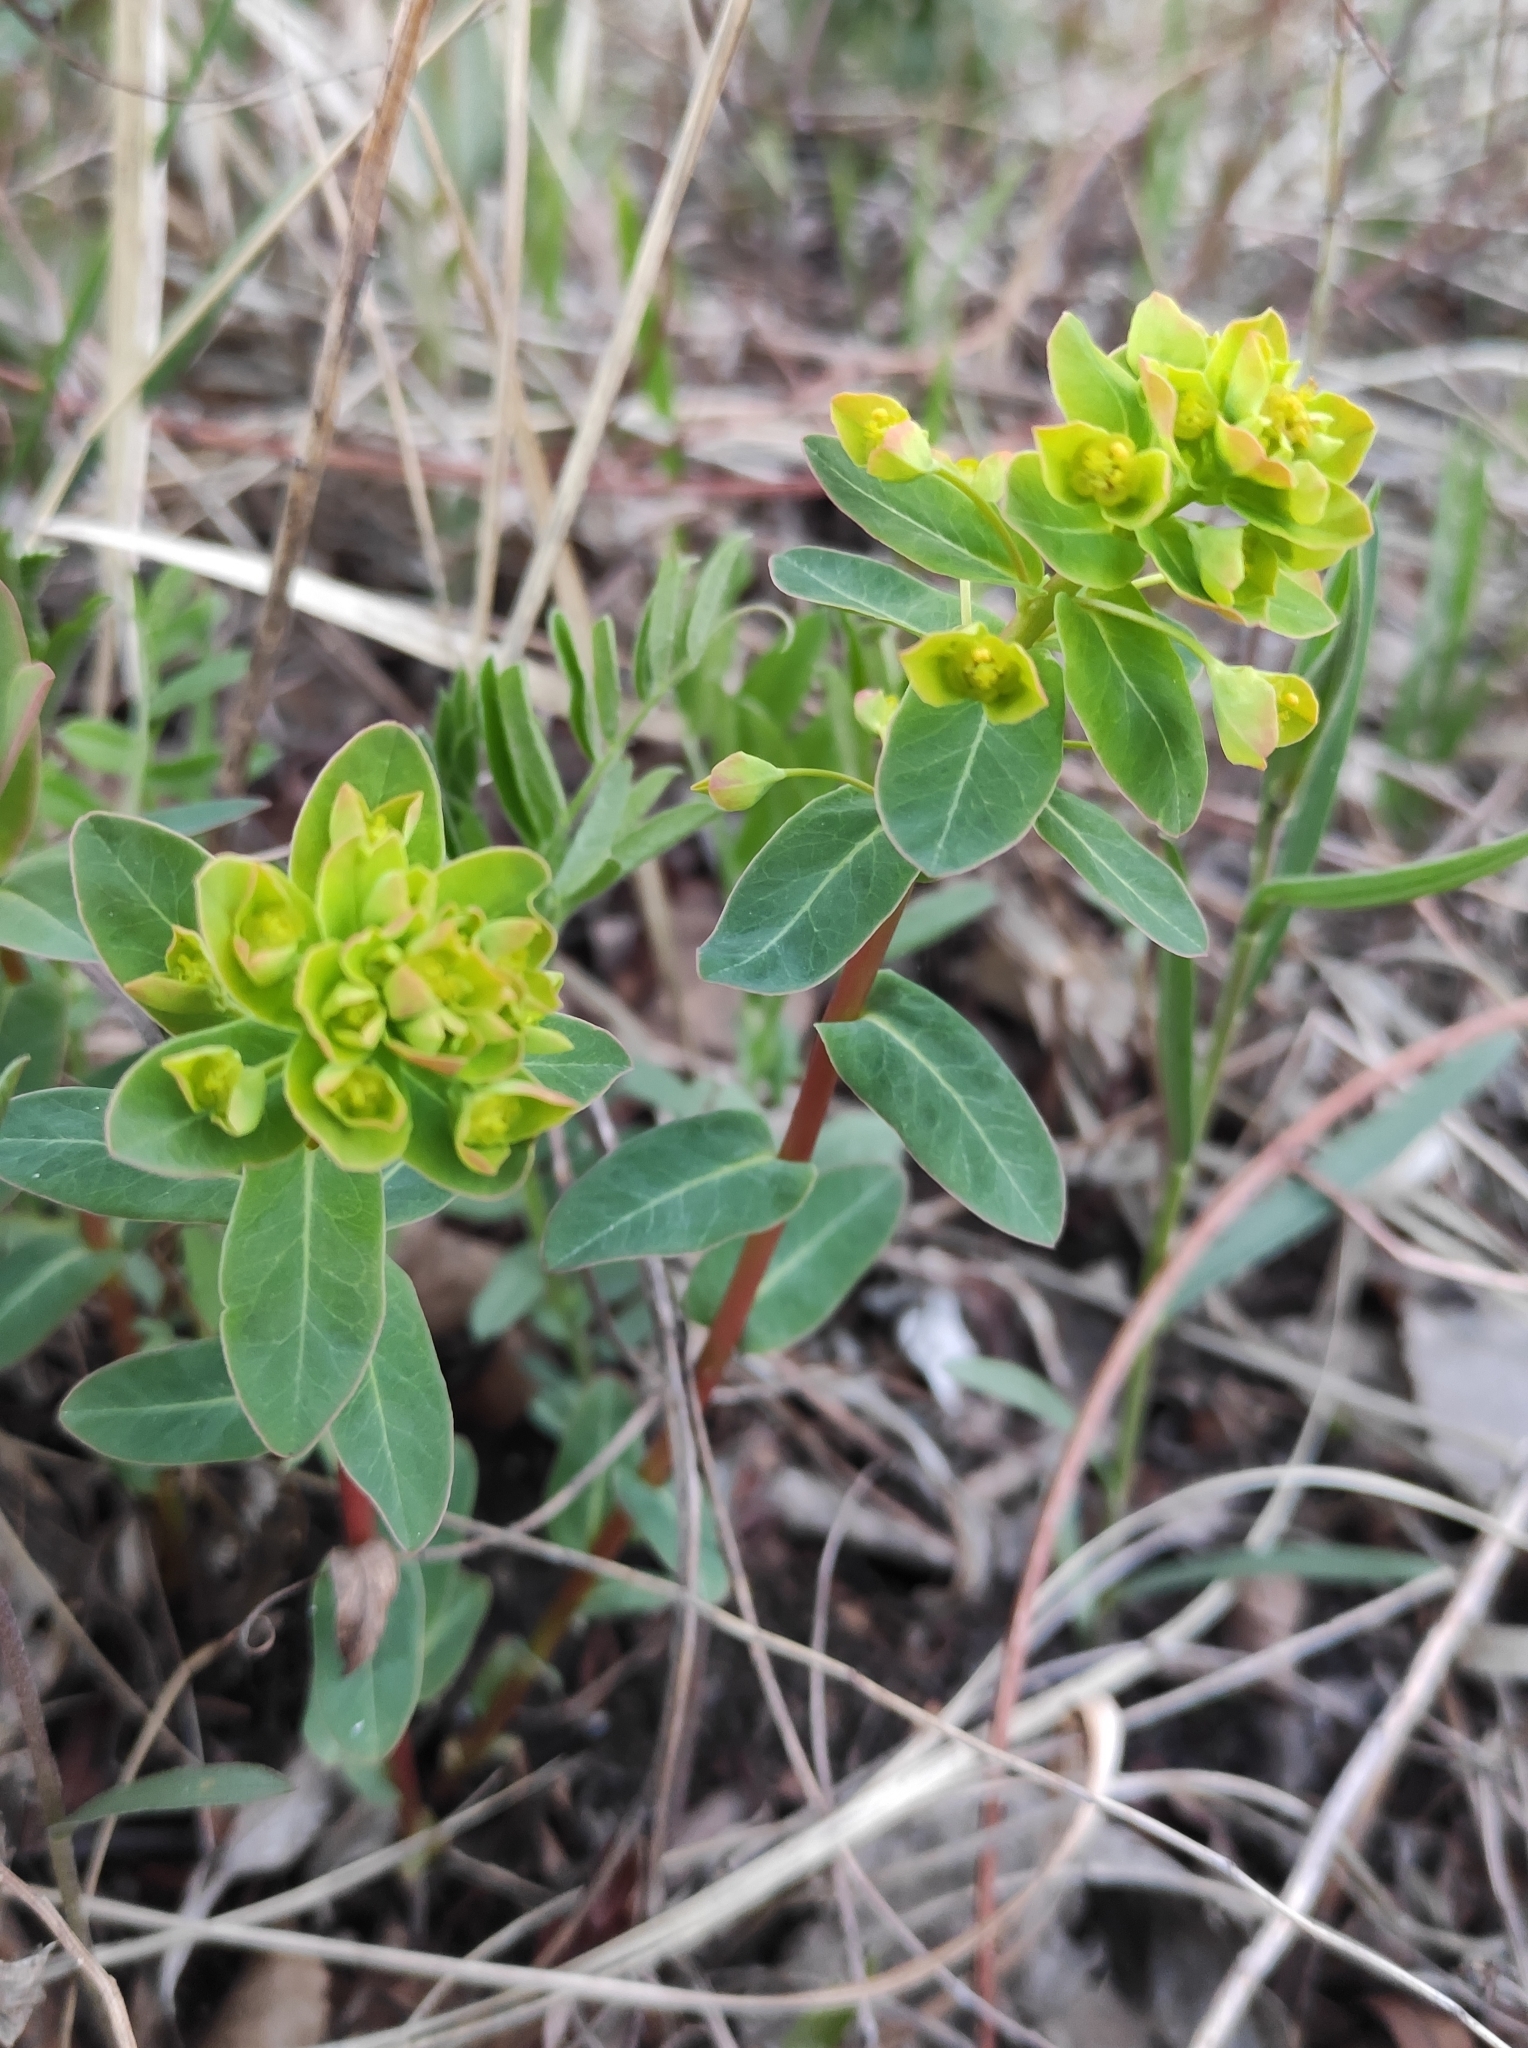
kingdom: Plantae
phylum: Tracheophyta
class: Magnoliopsida
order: Malpighiales
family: Euphorbiaceae
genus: Euphorbia
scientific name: Euphorbia jenisseiensis
